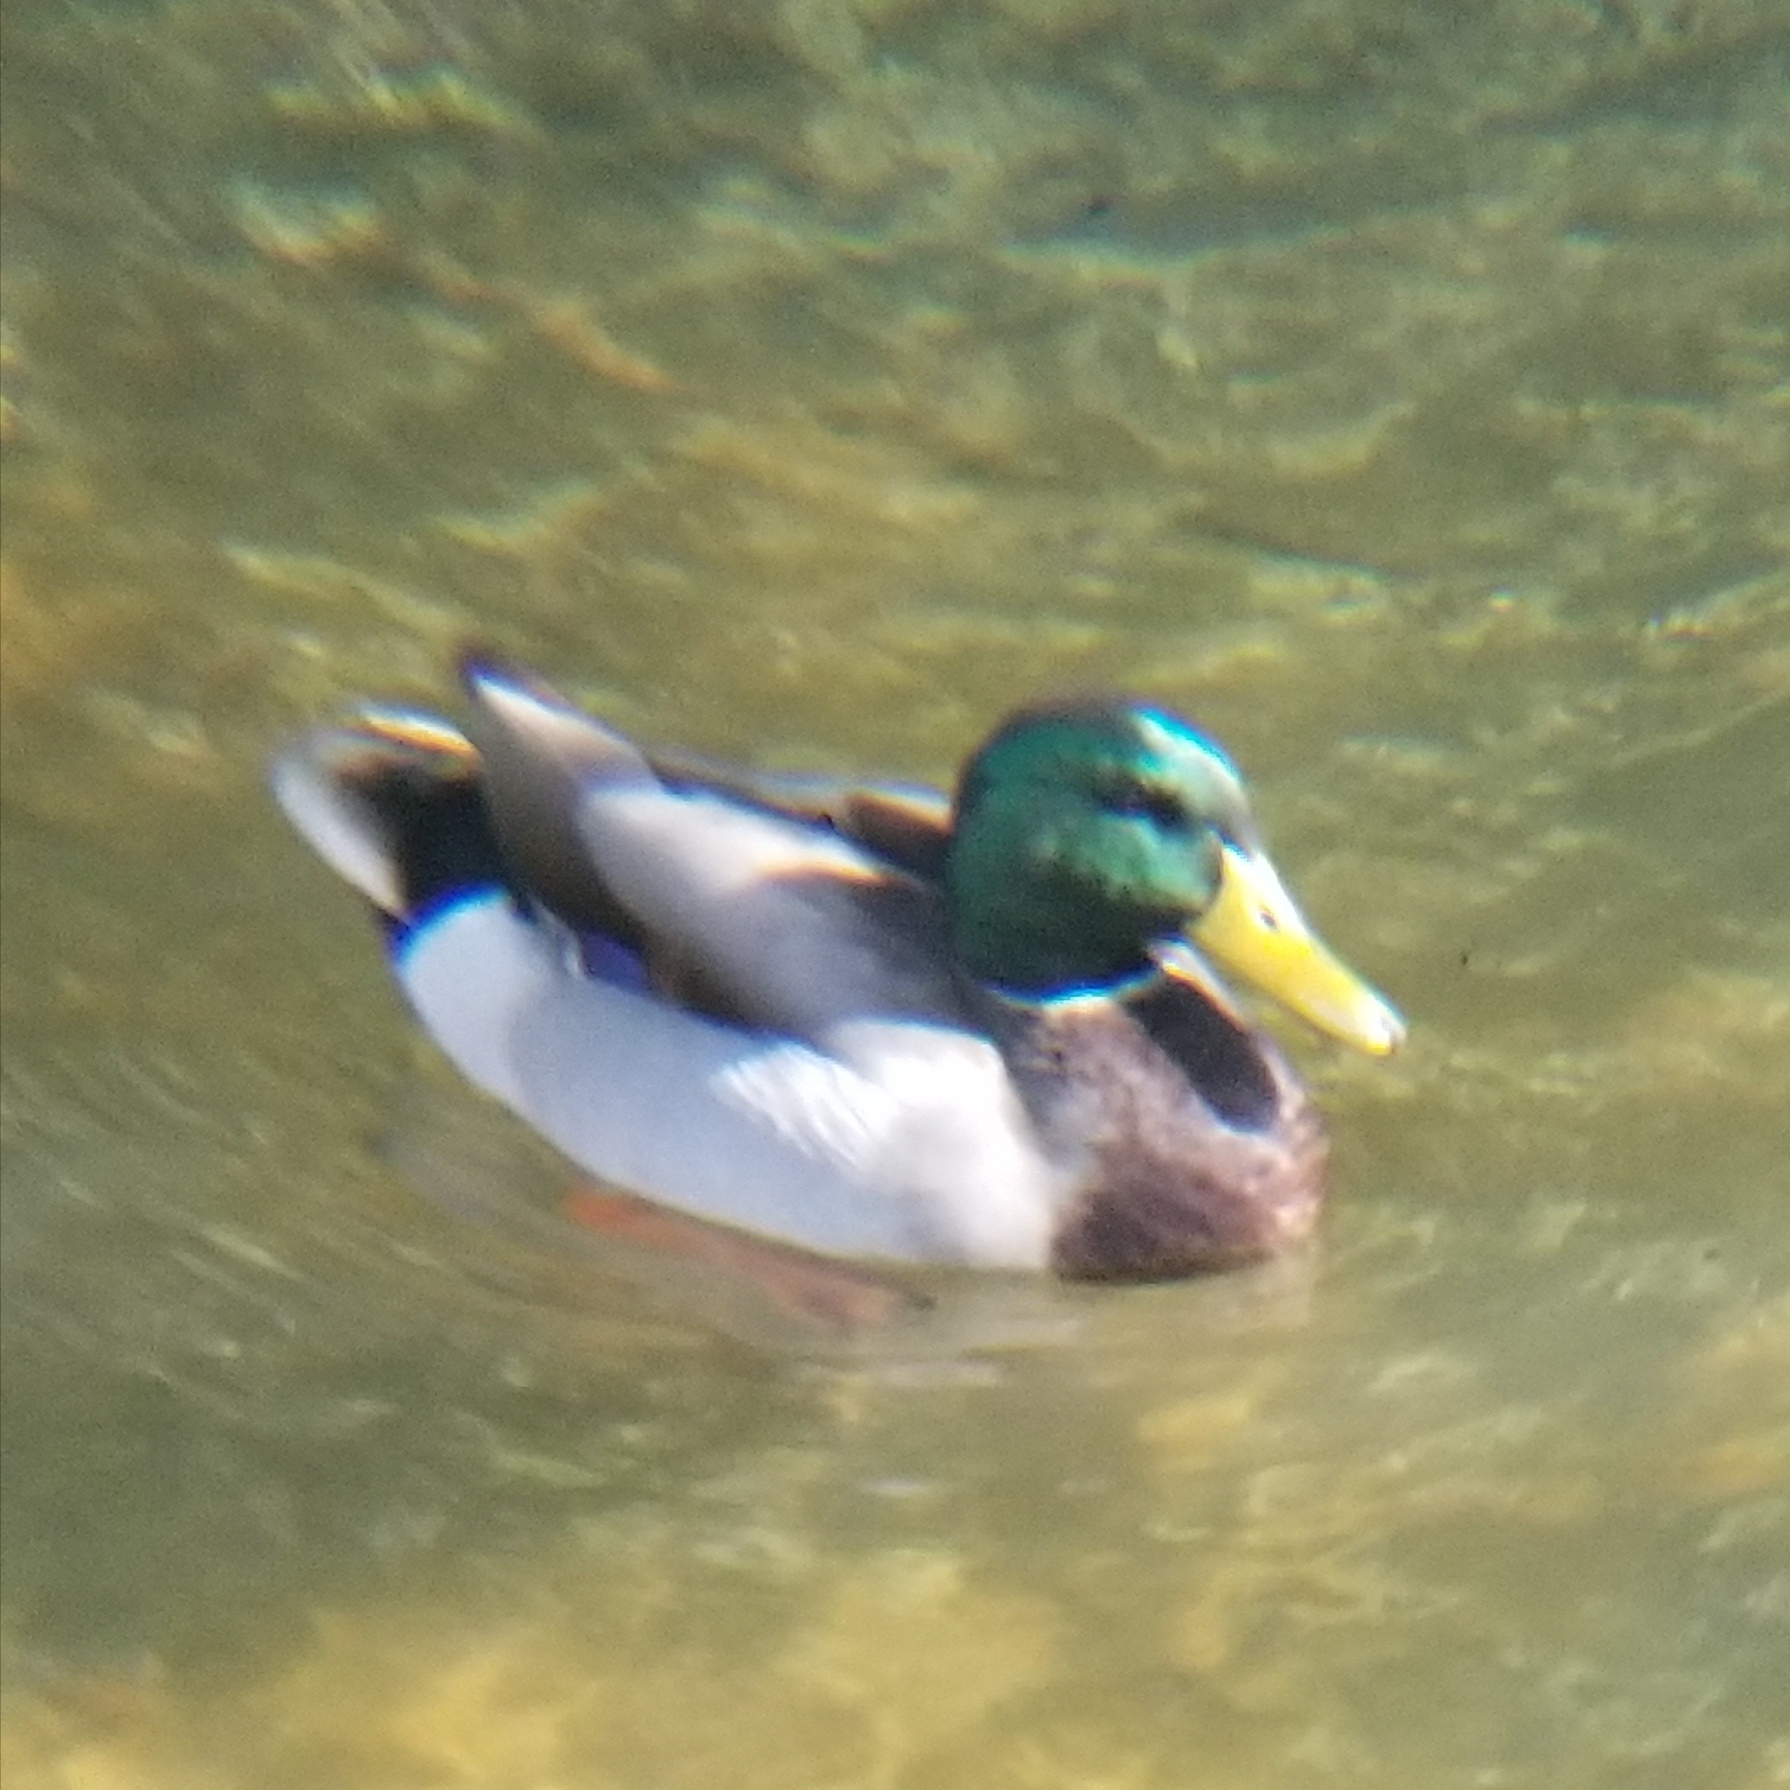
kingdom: Animalia
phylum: Chordata
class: Aves
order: Anseriformes
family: Anatidae
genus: Anas
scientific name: Anas platyrhynchos
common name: Mallard
